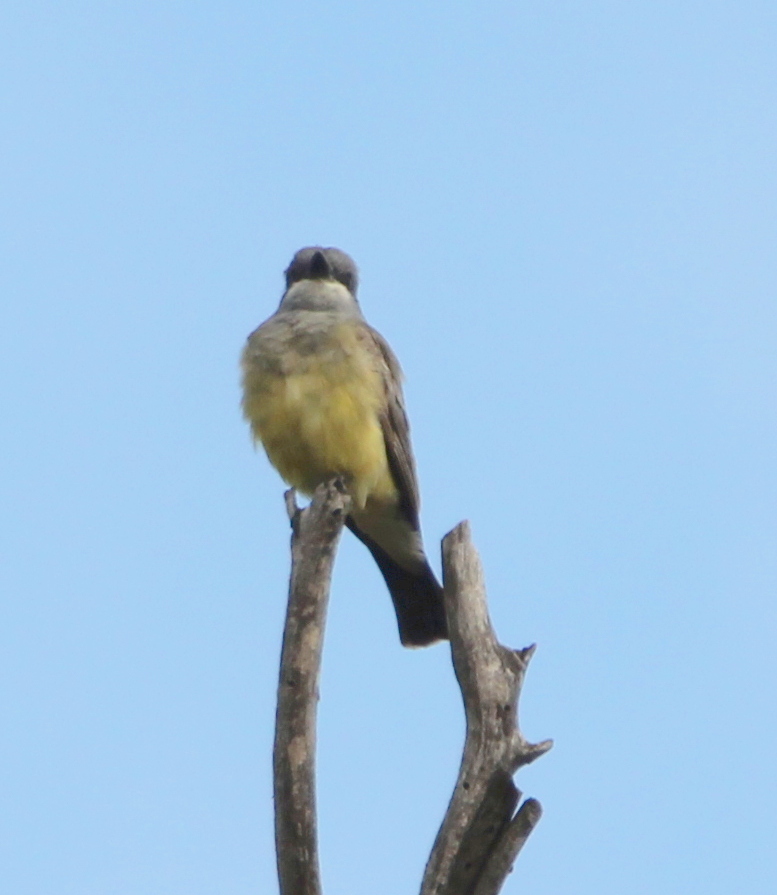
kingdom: Animalia
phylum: Chordata
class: Aves
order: Passeriformes
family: Tyrannidae
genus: Tyrannus
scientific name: Tyrannus vociferans
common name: Cassin's kingbird
